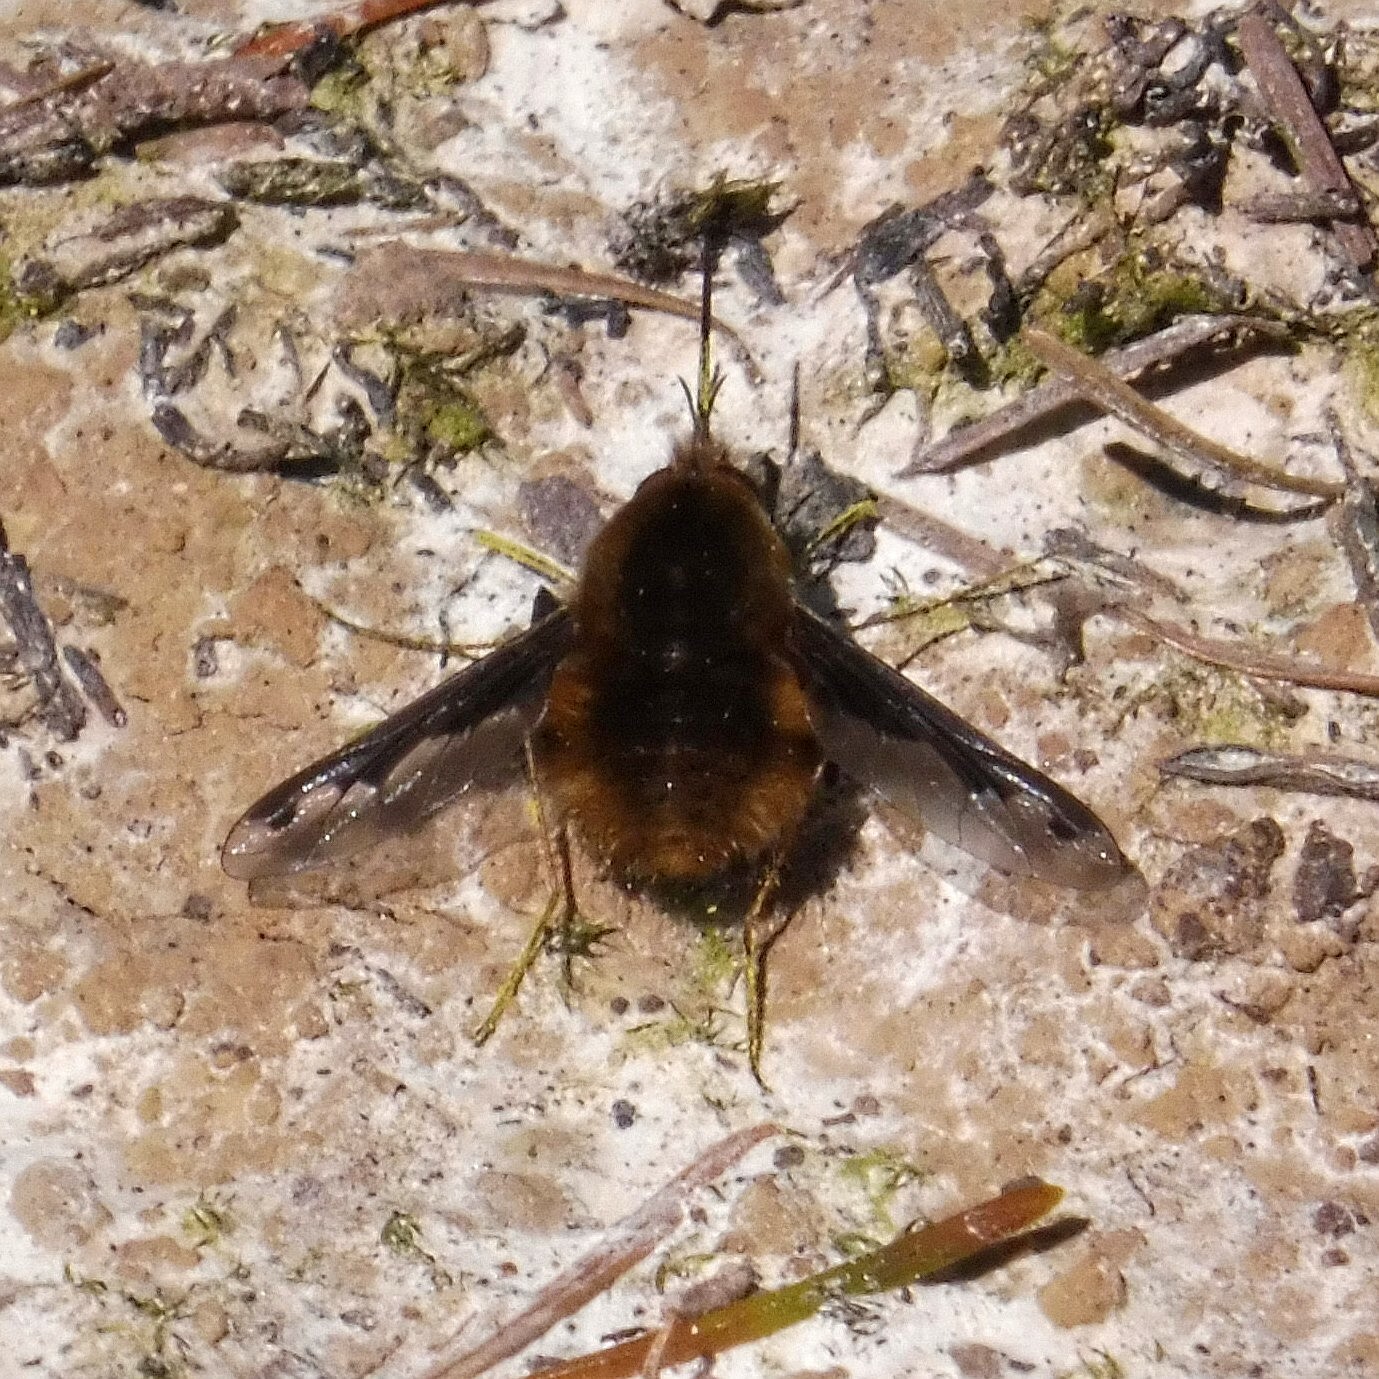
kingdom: Animalia
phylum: Arthropoda
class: Insecta
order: Diptera
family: Bombyliidae
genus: Bombylius
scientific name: Bombylius major
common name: Bee fly
